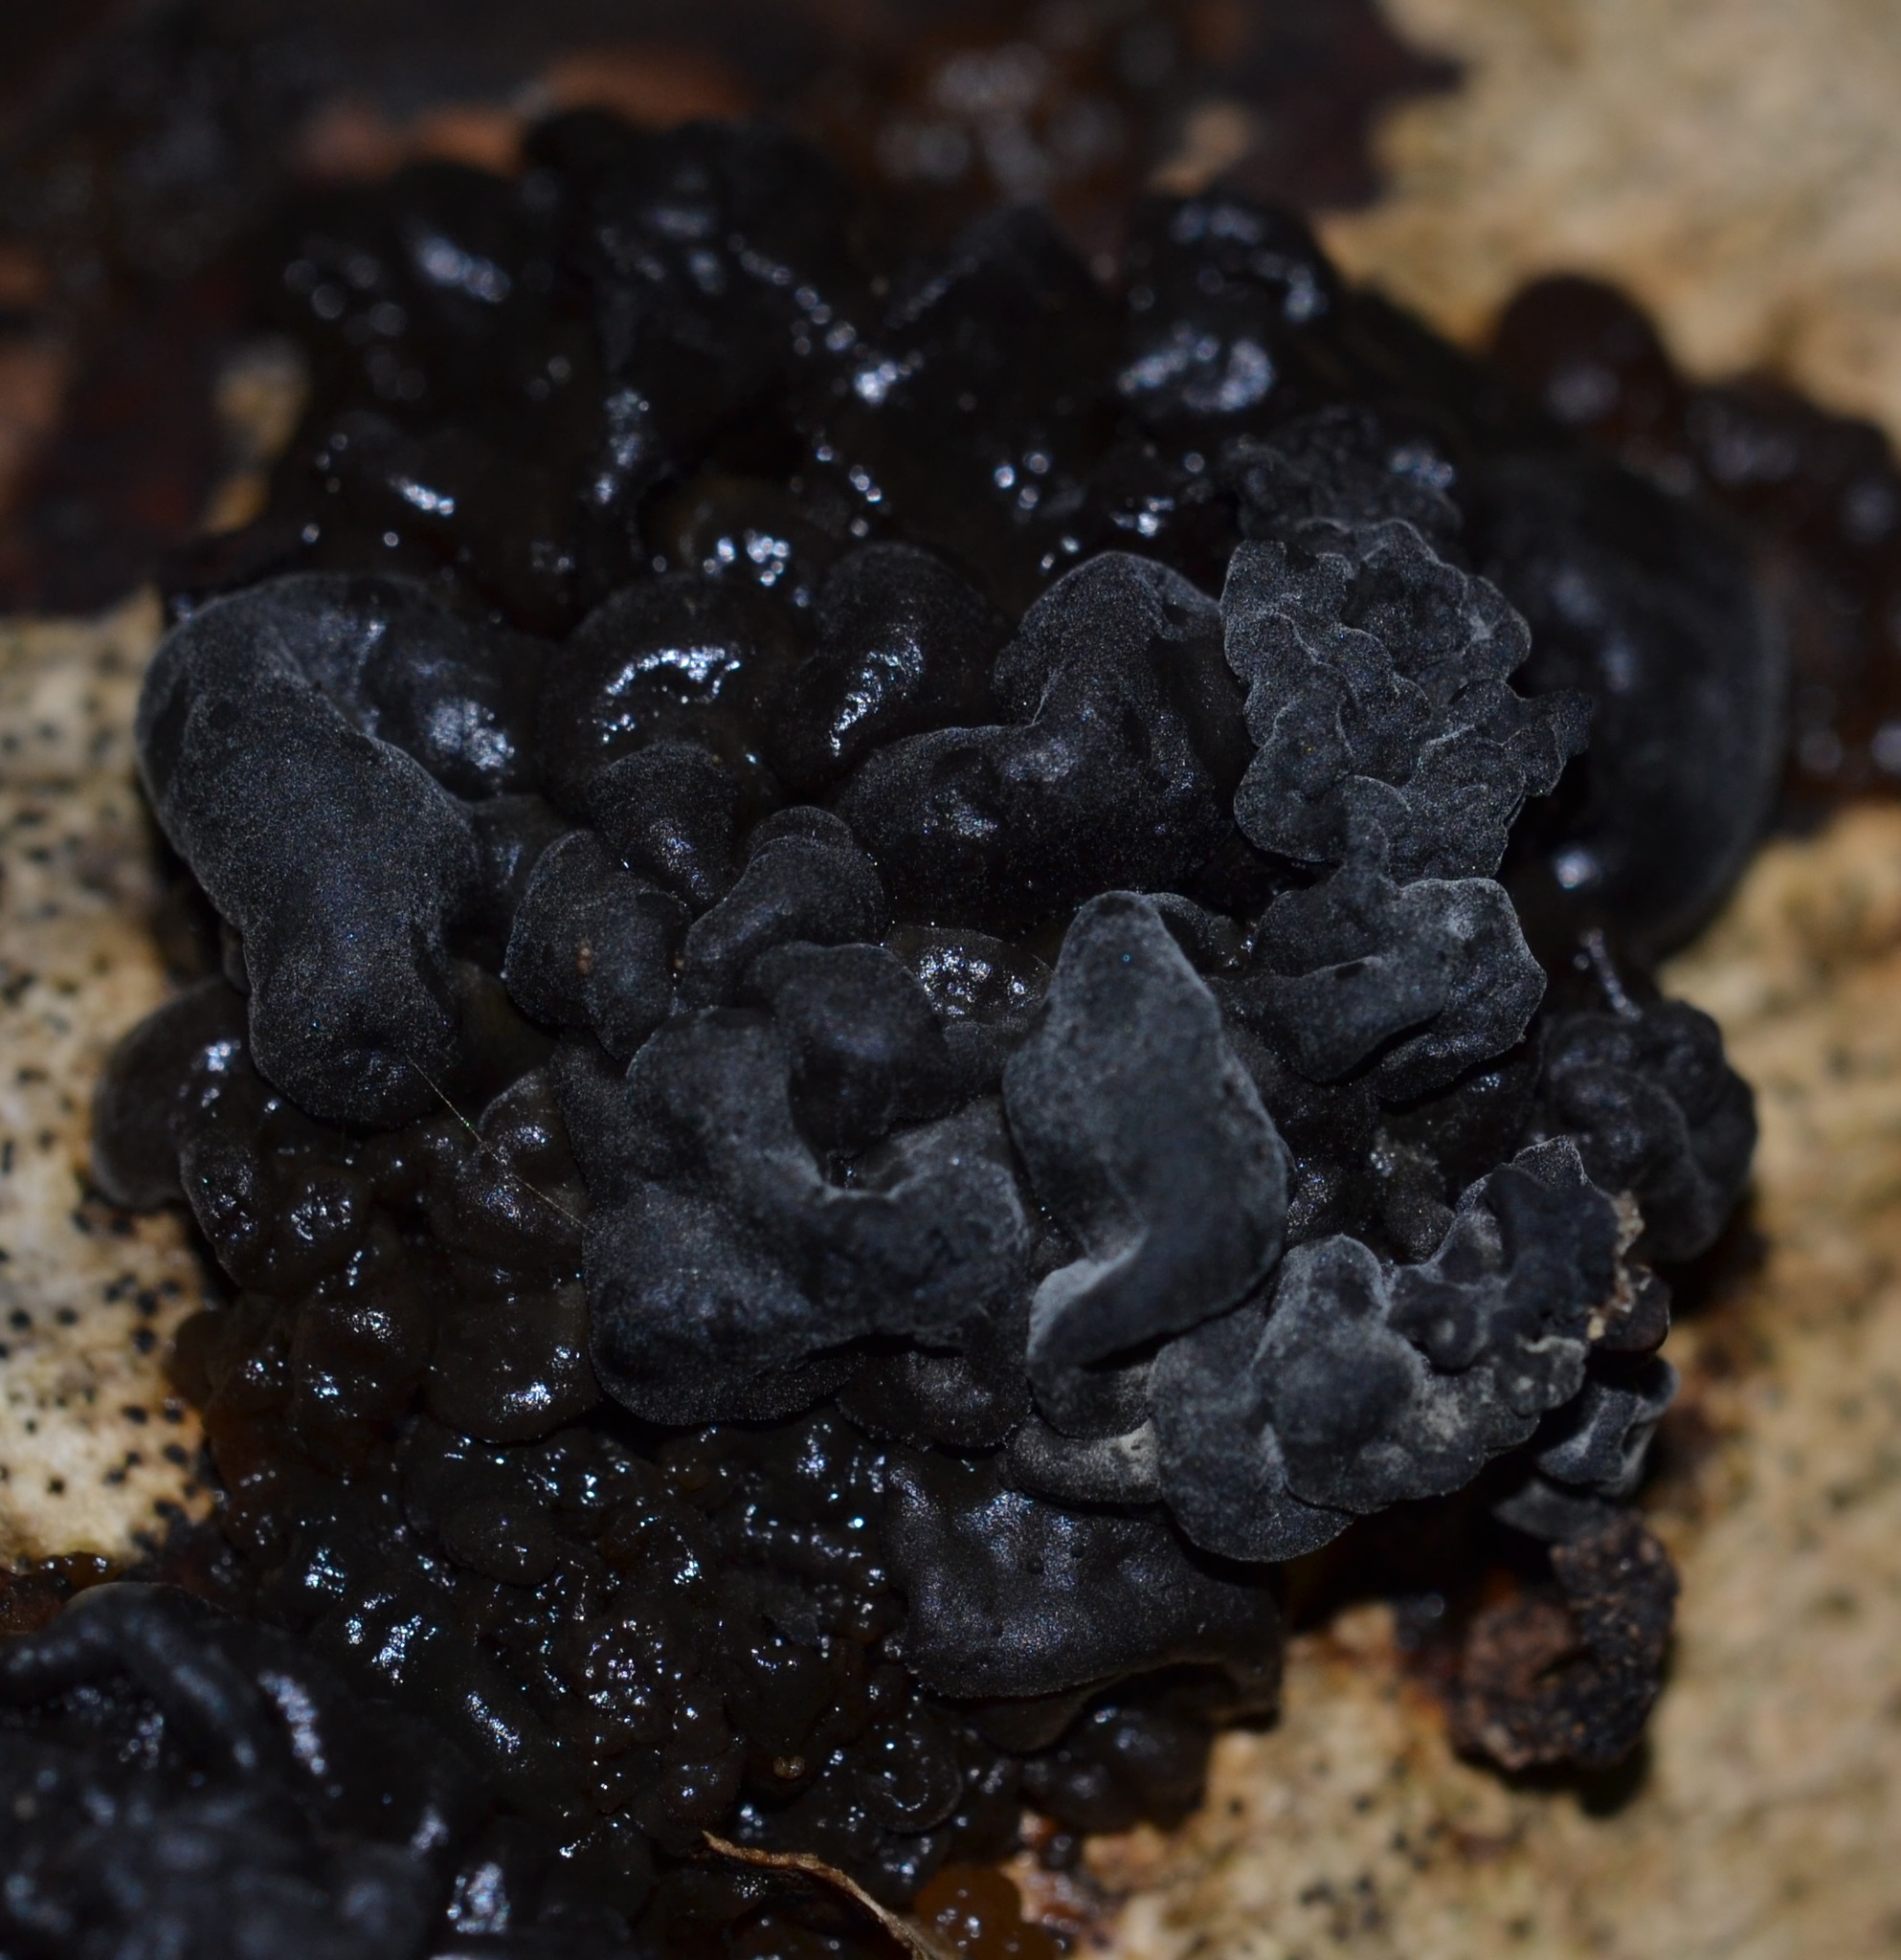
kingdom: Fungi
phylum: Basidiomycota
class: Tremellomycetes
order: Tremellales
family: Tremellaceae
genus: Tremella
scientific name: Tremella boraborensis
